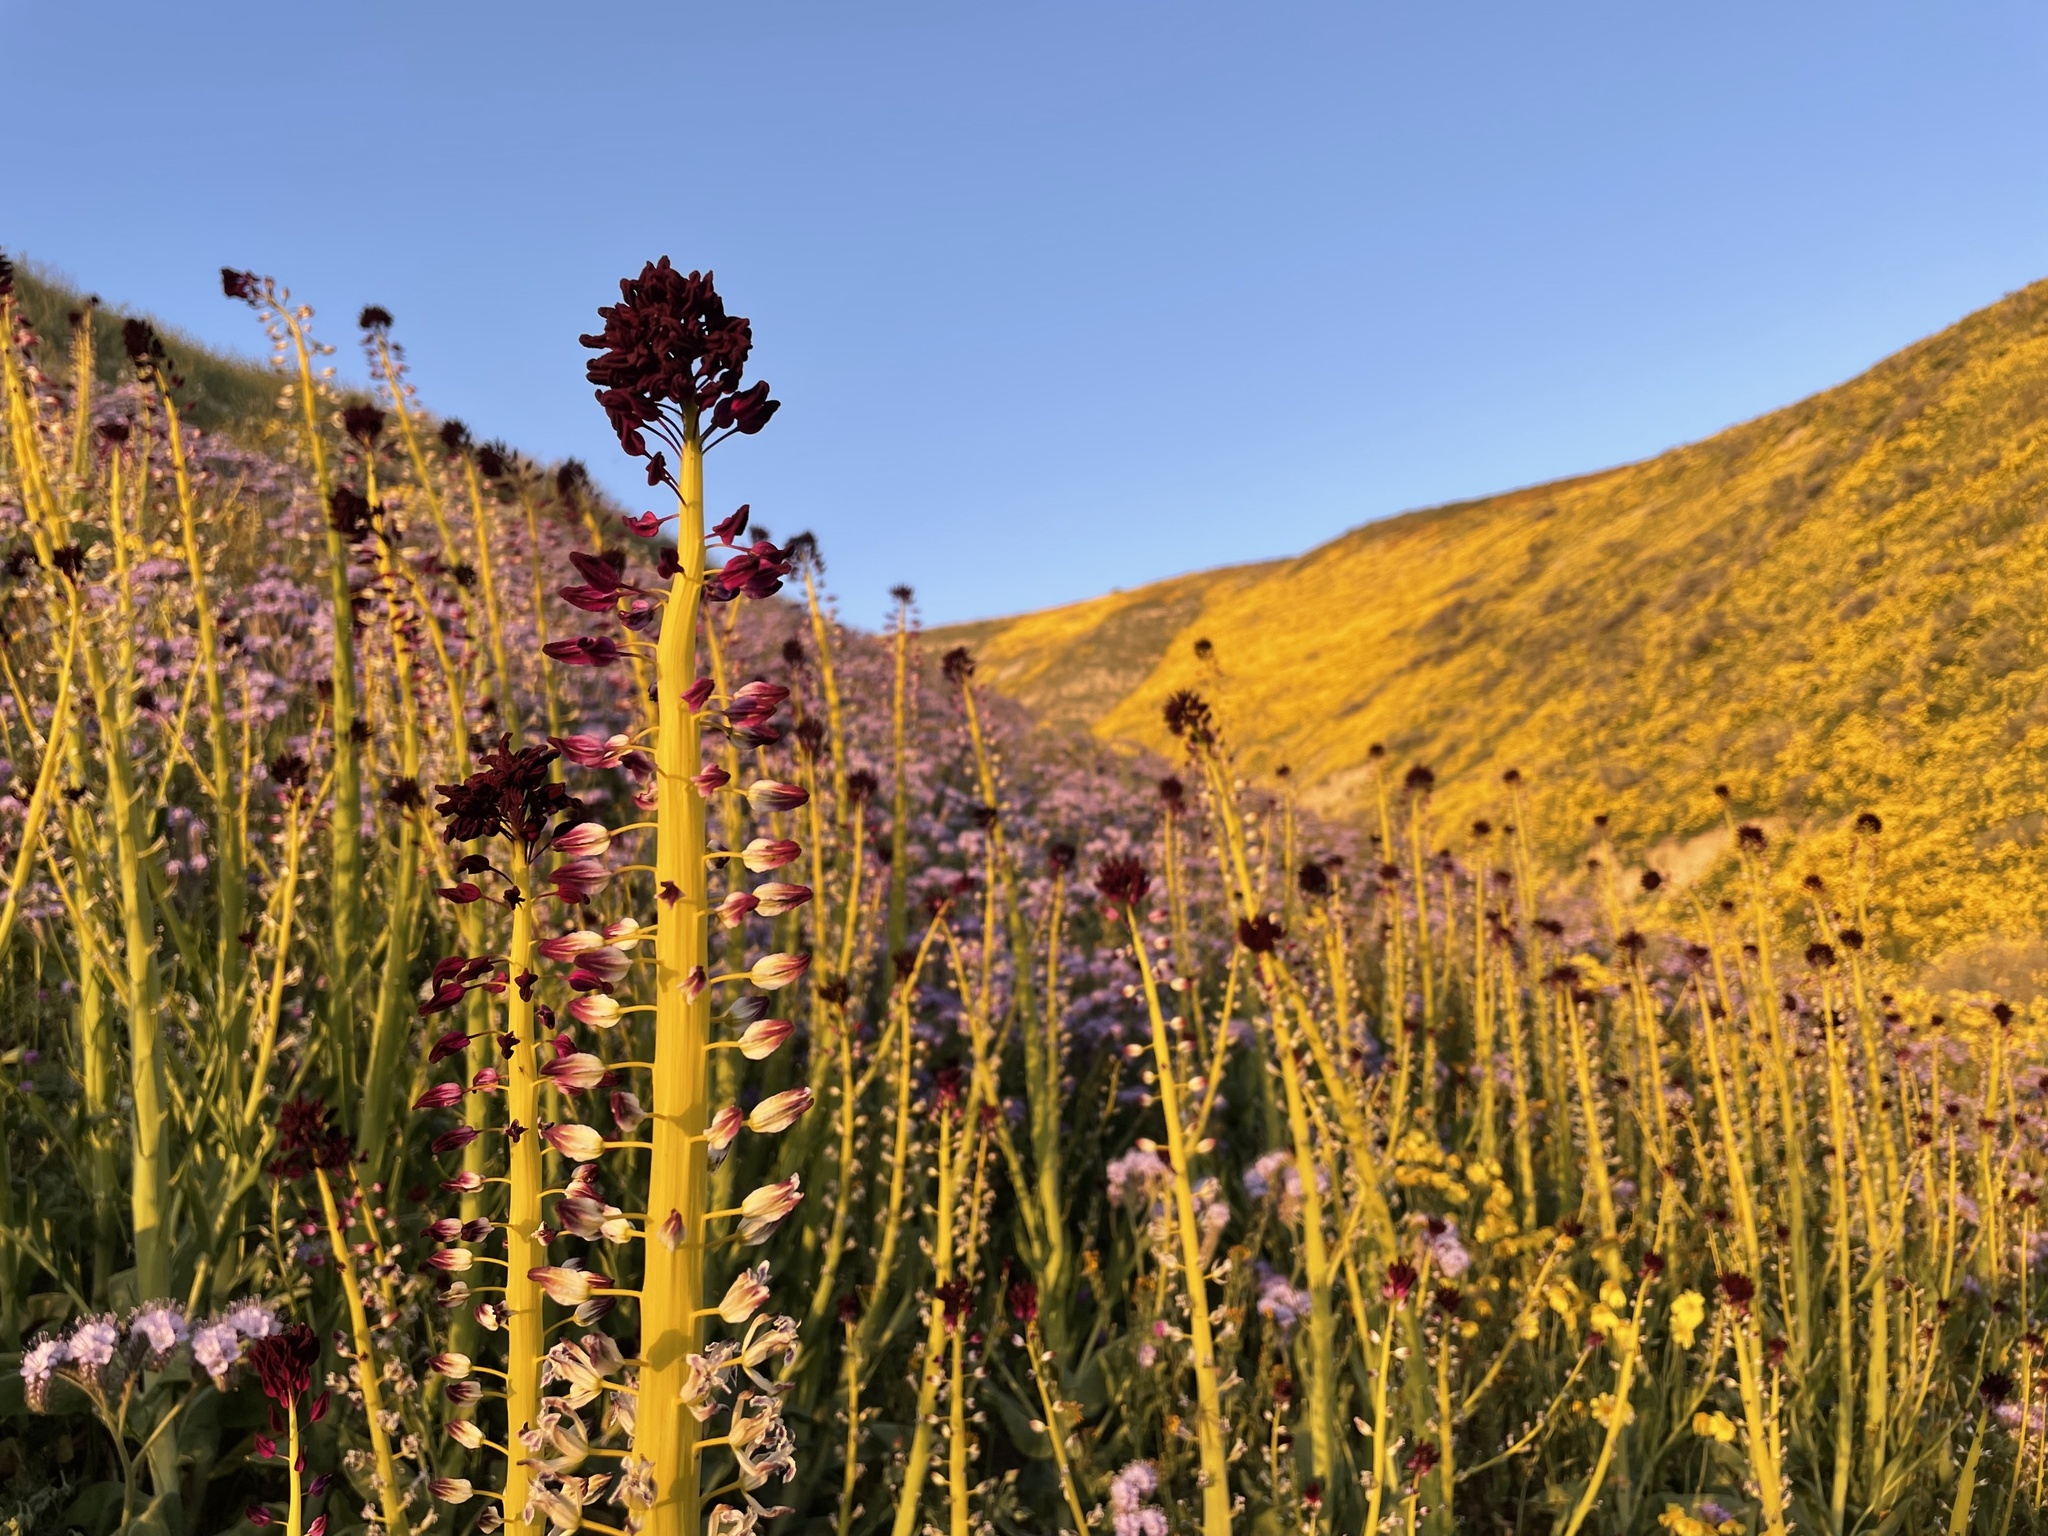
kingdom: Plantae
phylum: Tracheophyta
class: Magnoliopsida
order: Brassicales
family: Brassicaceae
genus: Streptanthus
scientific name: Streptanthus inflatus
